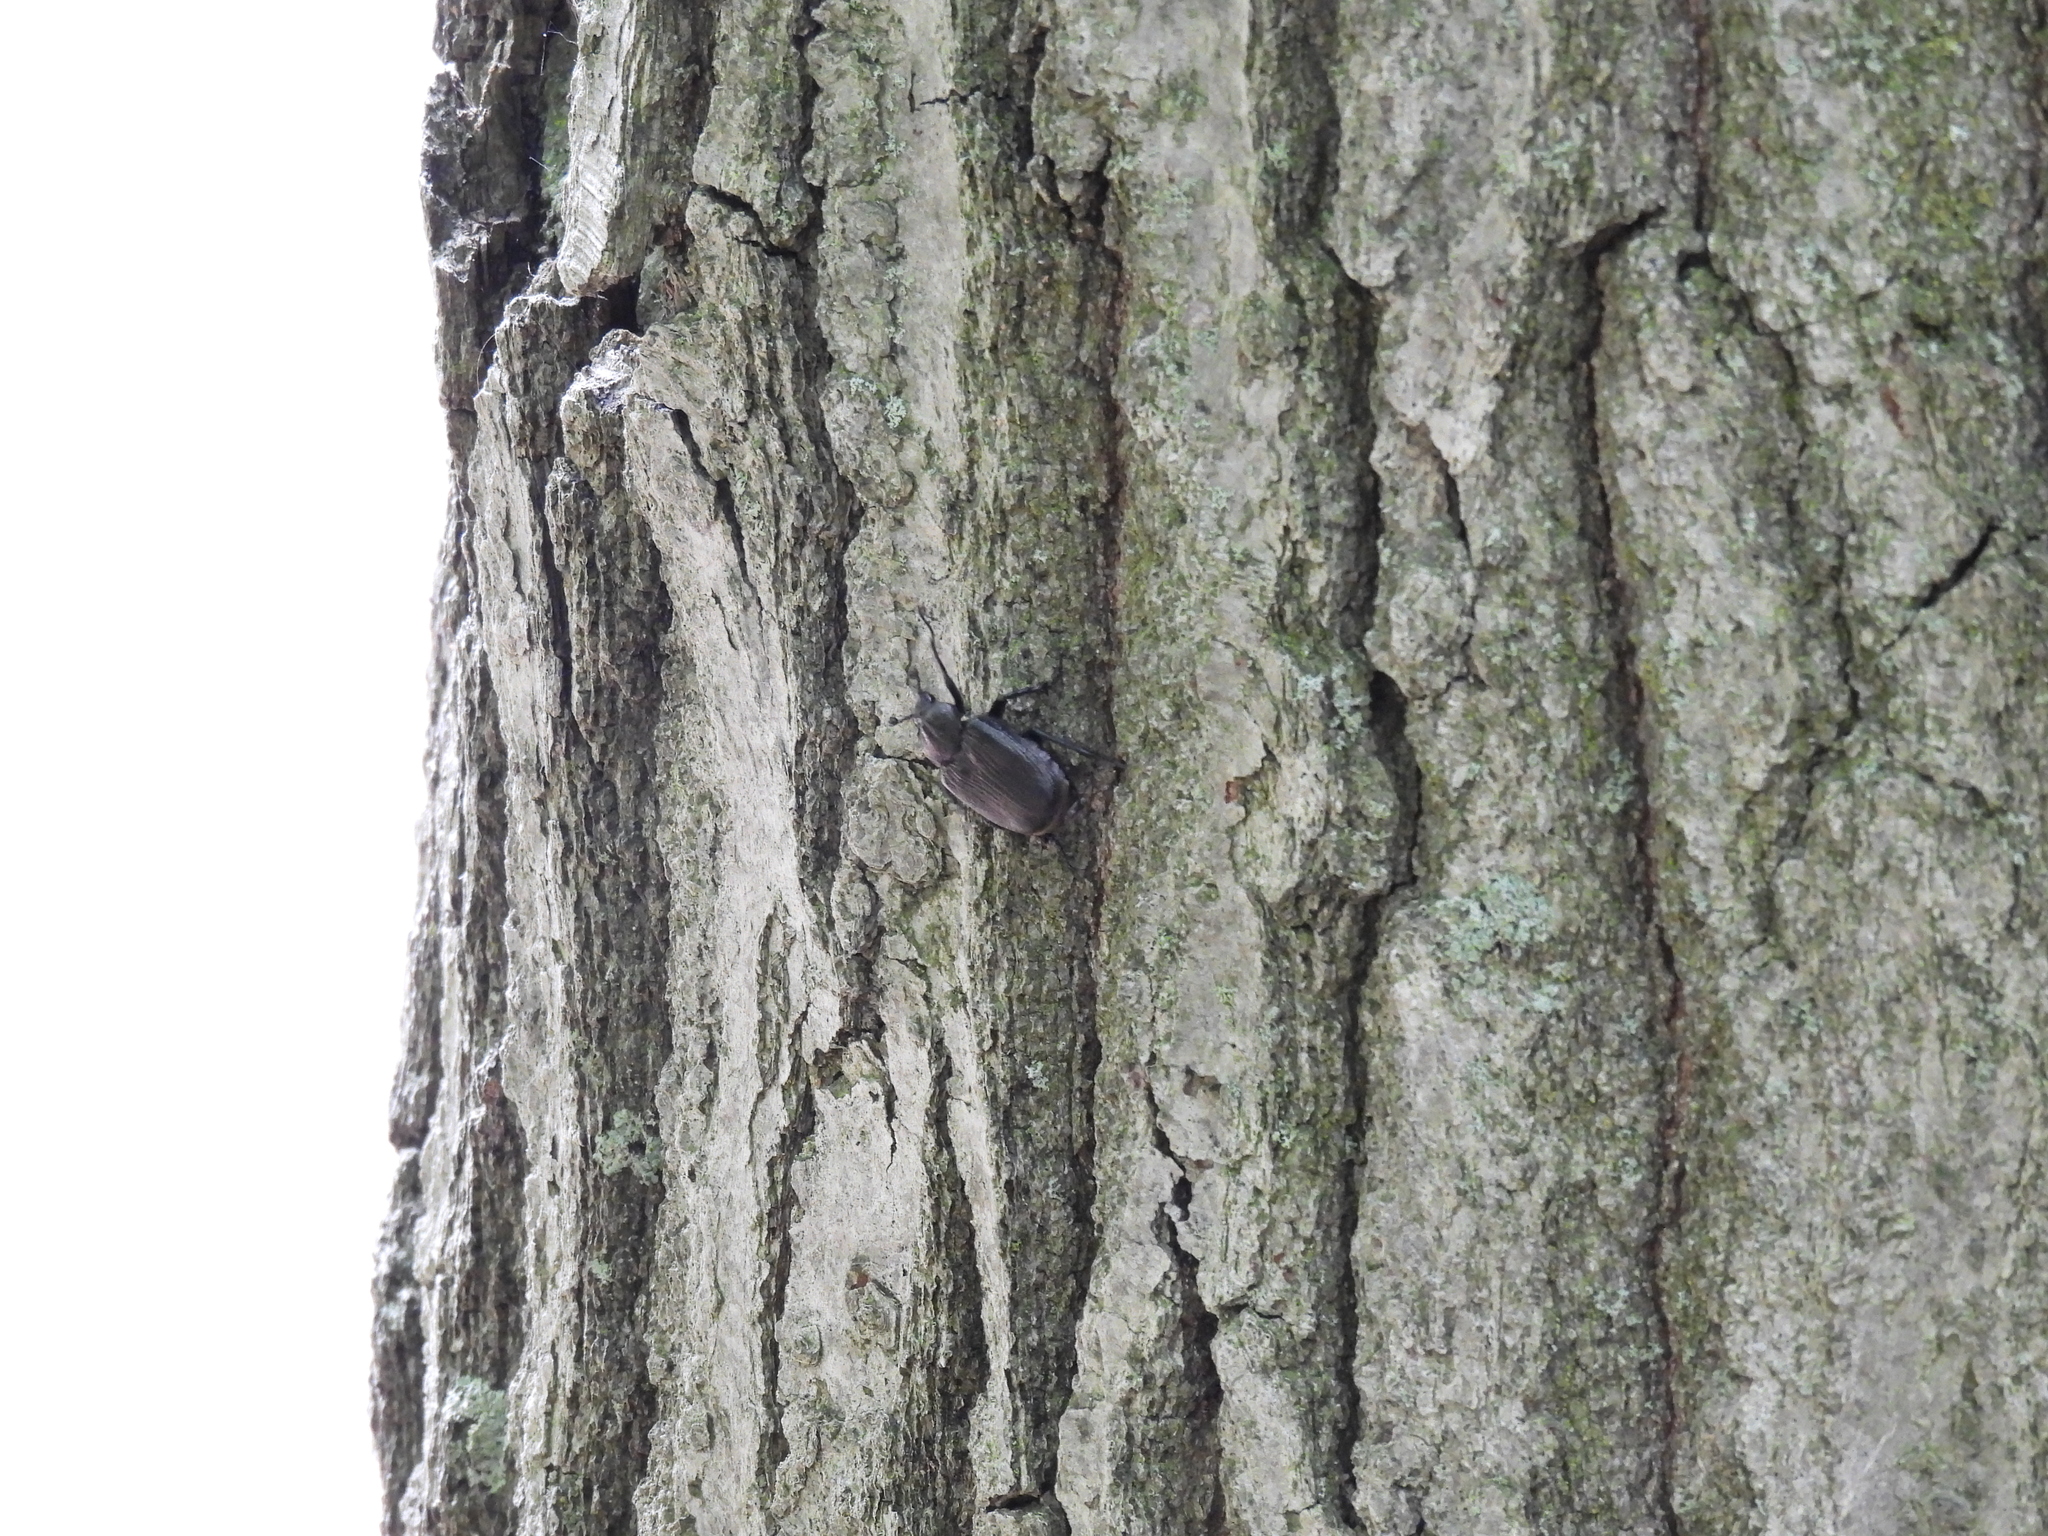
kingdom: Animalia
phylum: Arthropoda
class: Insecta
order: Coleoptera
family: Scarabaeidae
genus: Osmoderma
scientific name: Osmoderma scabra
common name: Rough hermit beetle
